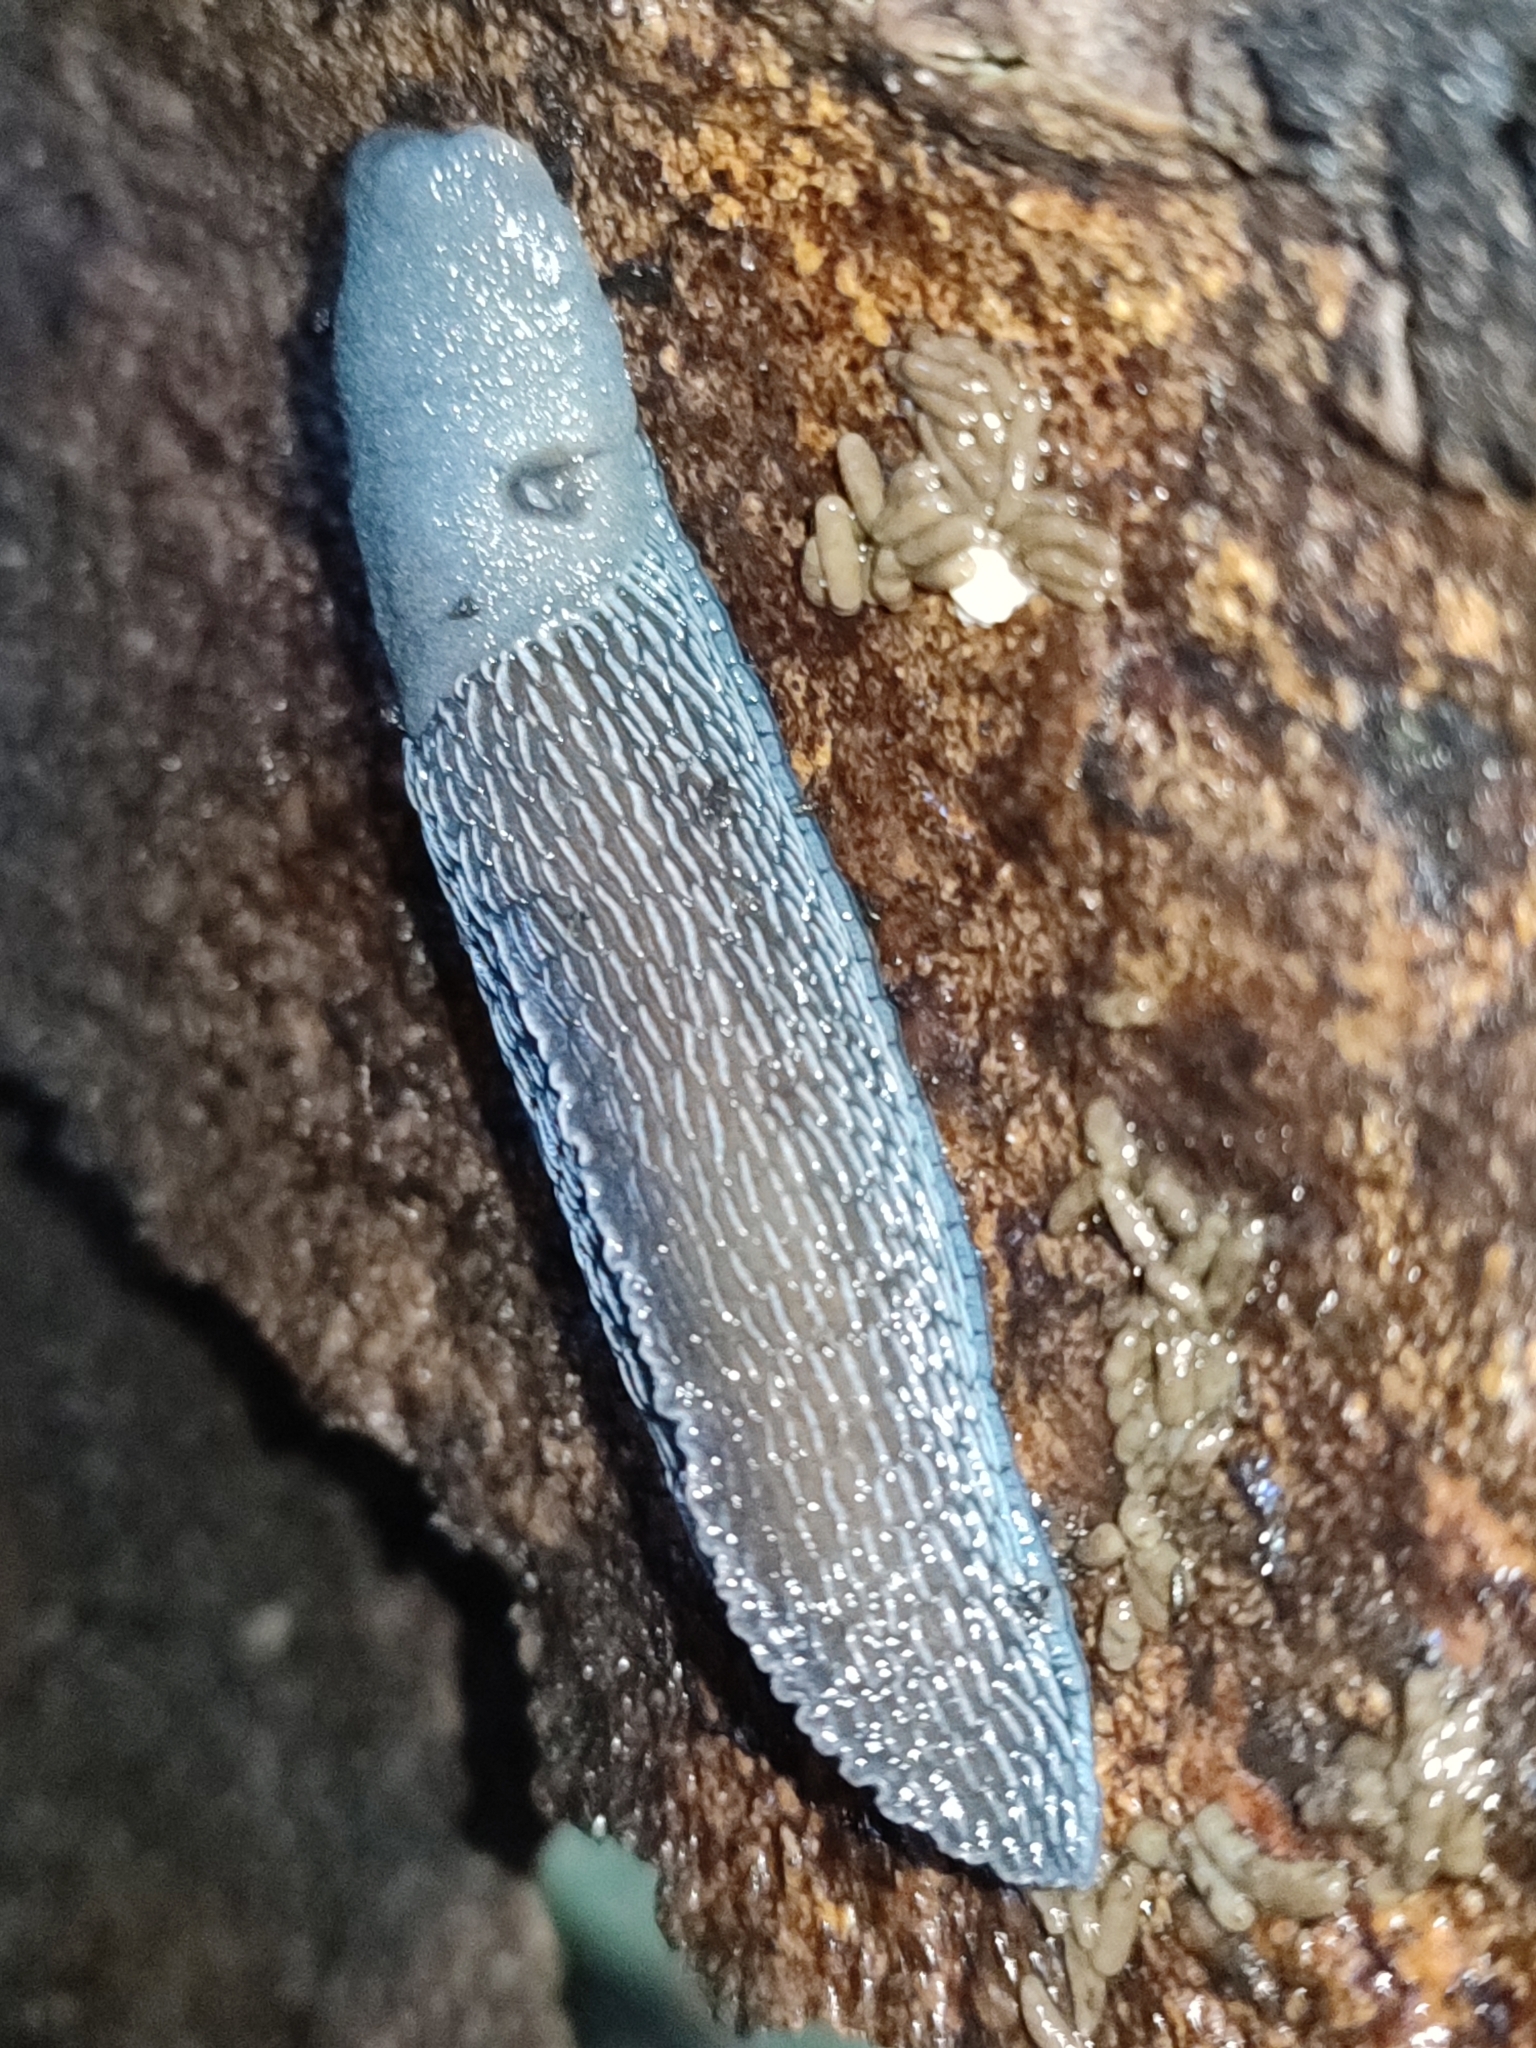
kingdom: Animalia
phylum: Mollusca
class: Gastropoda
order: Stylommatophora
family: Limacidae
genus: Bielzia
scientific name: Bielzia coerulans
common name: Carpathian blue slug
